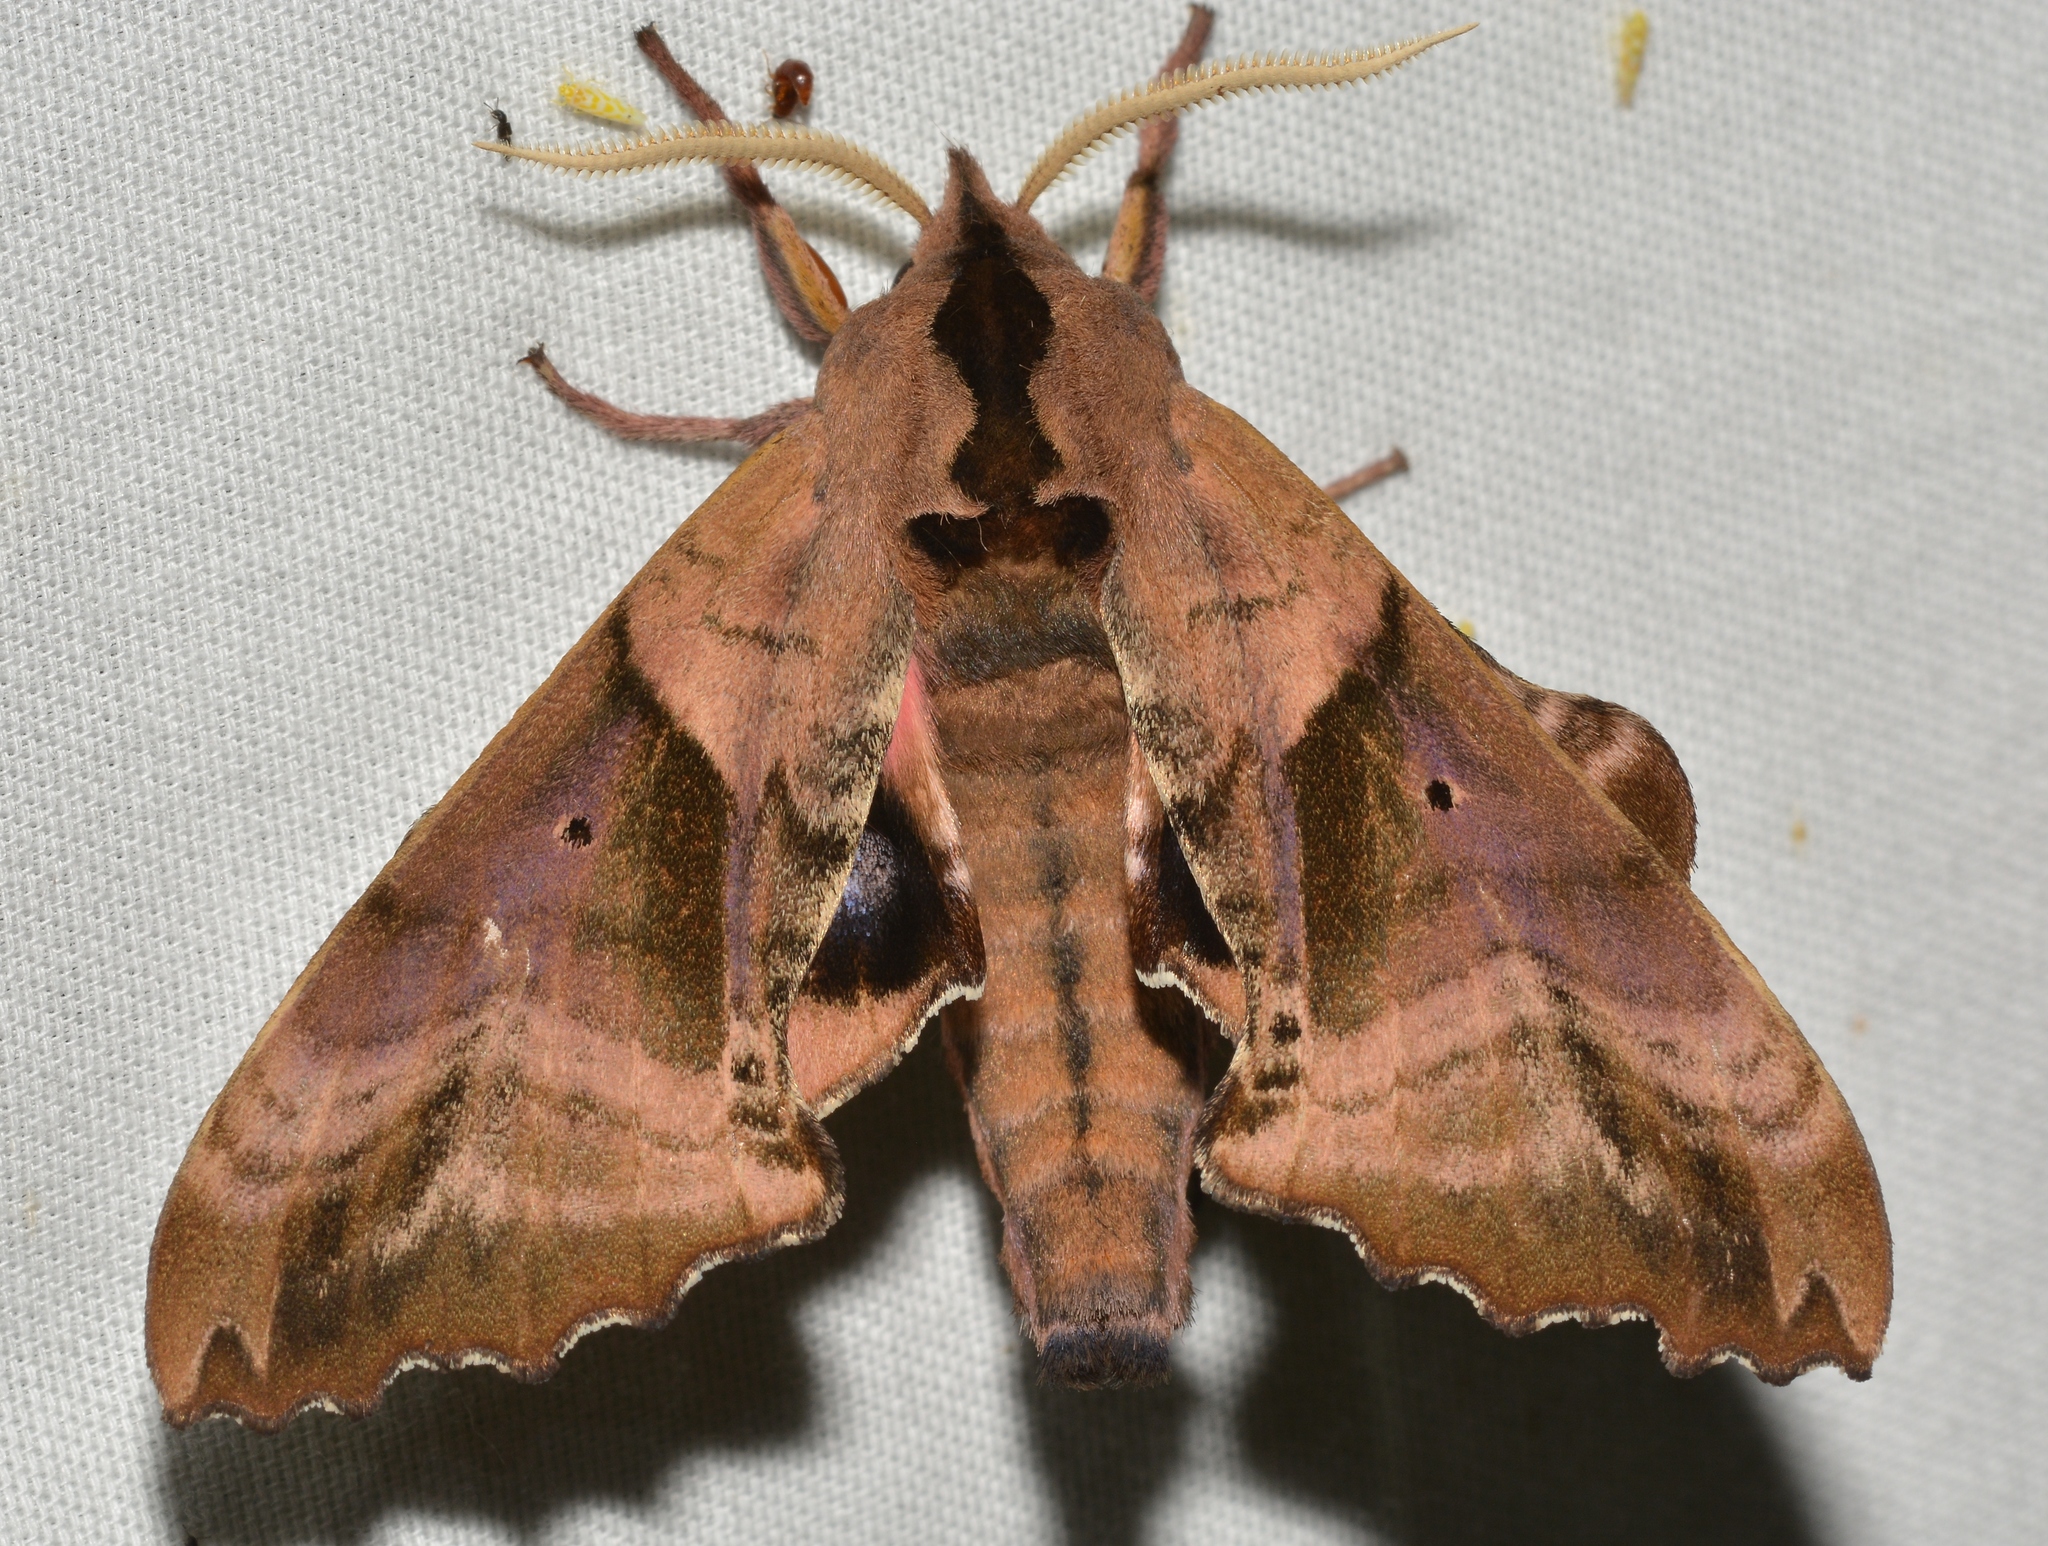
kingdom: Animalia
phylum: Arthropoda
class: Insecta
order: Lepidoptera
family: Sphingidae
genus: Paonias
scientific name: Paonias excaecata
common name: Blind-eyed sphinx
